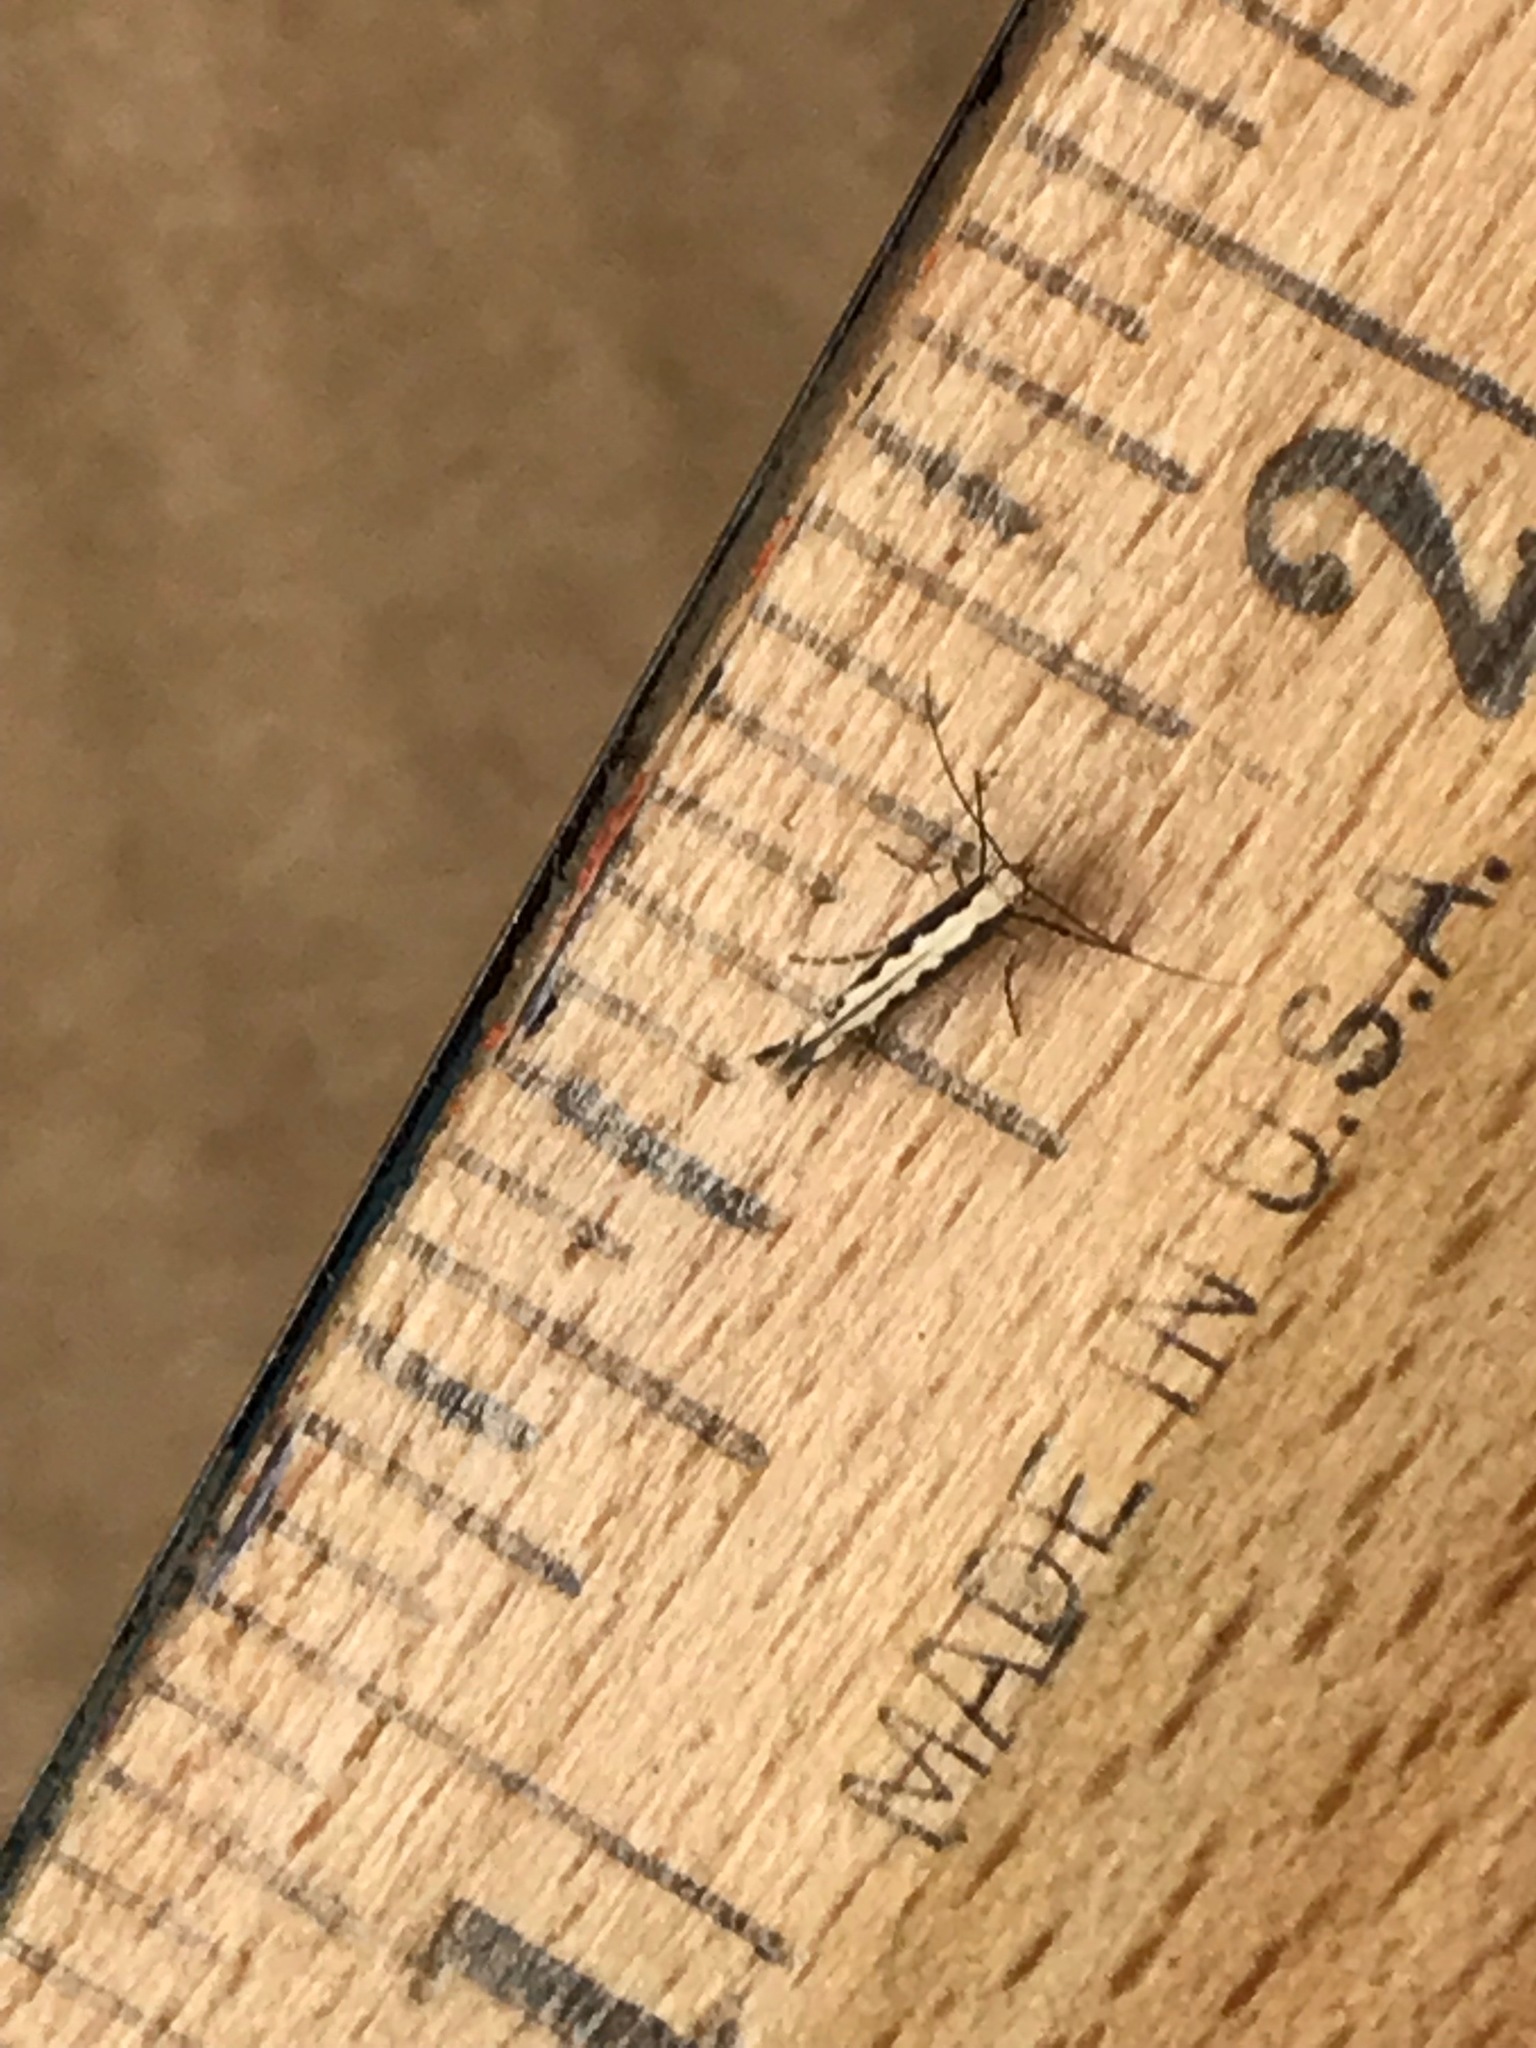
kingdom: Animalia
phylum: Arthropoda
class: Insecta
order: Lepidoptera
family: Plutellidae
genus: Plutella
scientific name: Plutella xylostella
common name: Diamond-back moth
